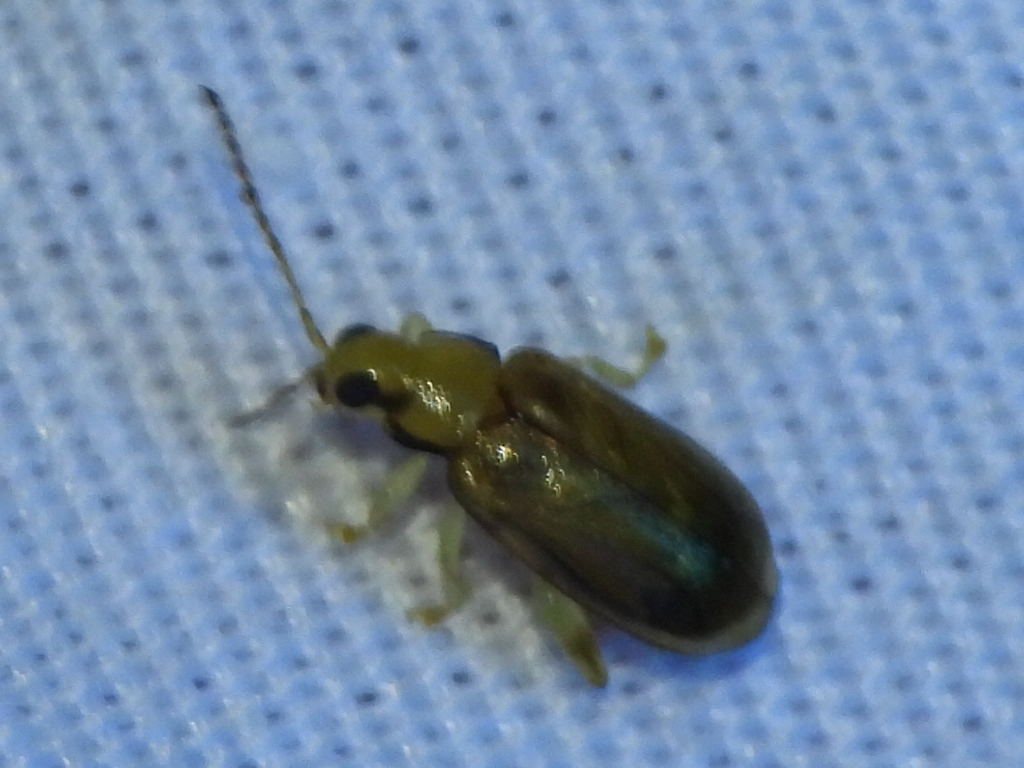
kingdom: Animalia
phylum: Arthropoda
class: Insecta
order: Coleoptera
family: Chrysomelidae
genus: Systena
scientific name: Systena marginalis
